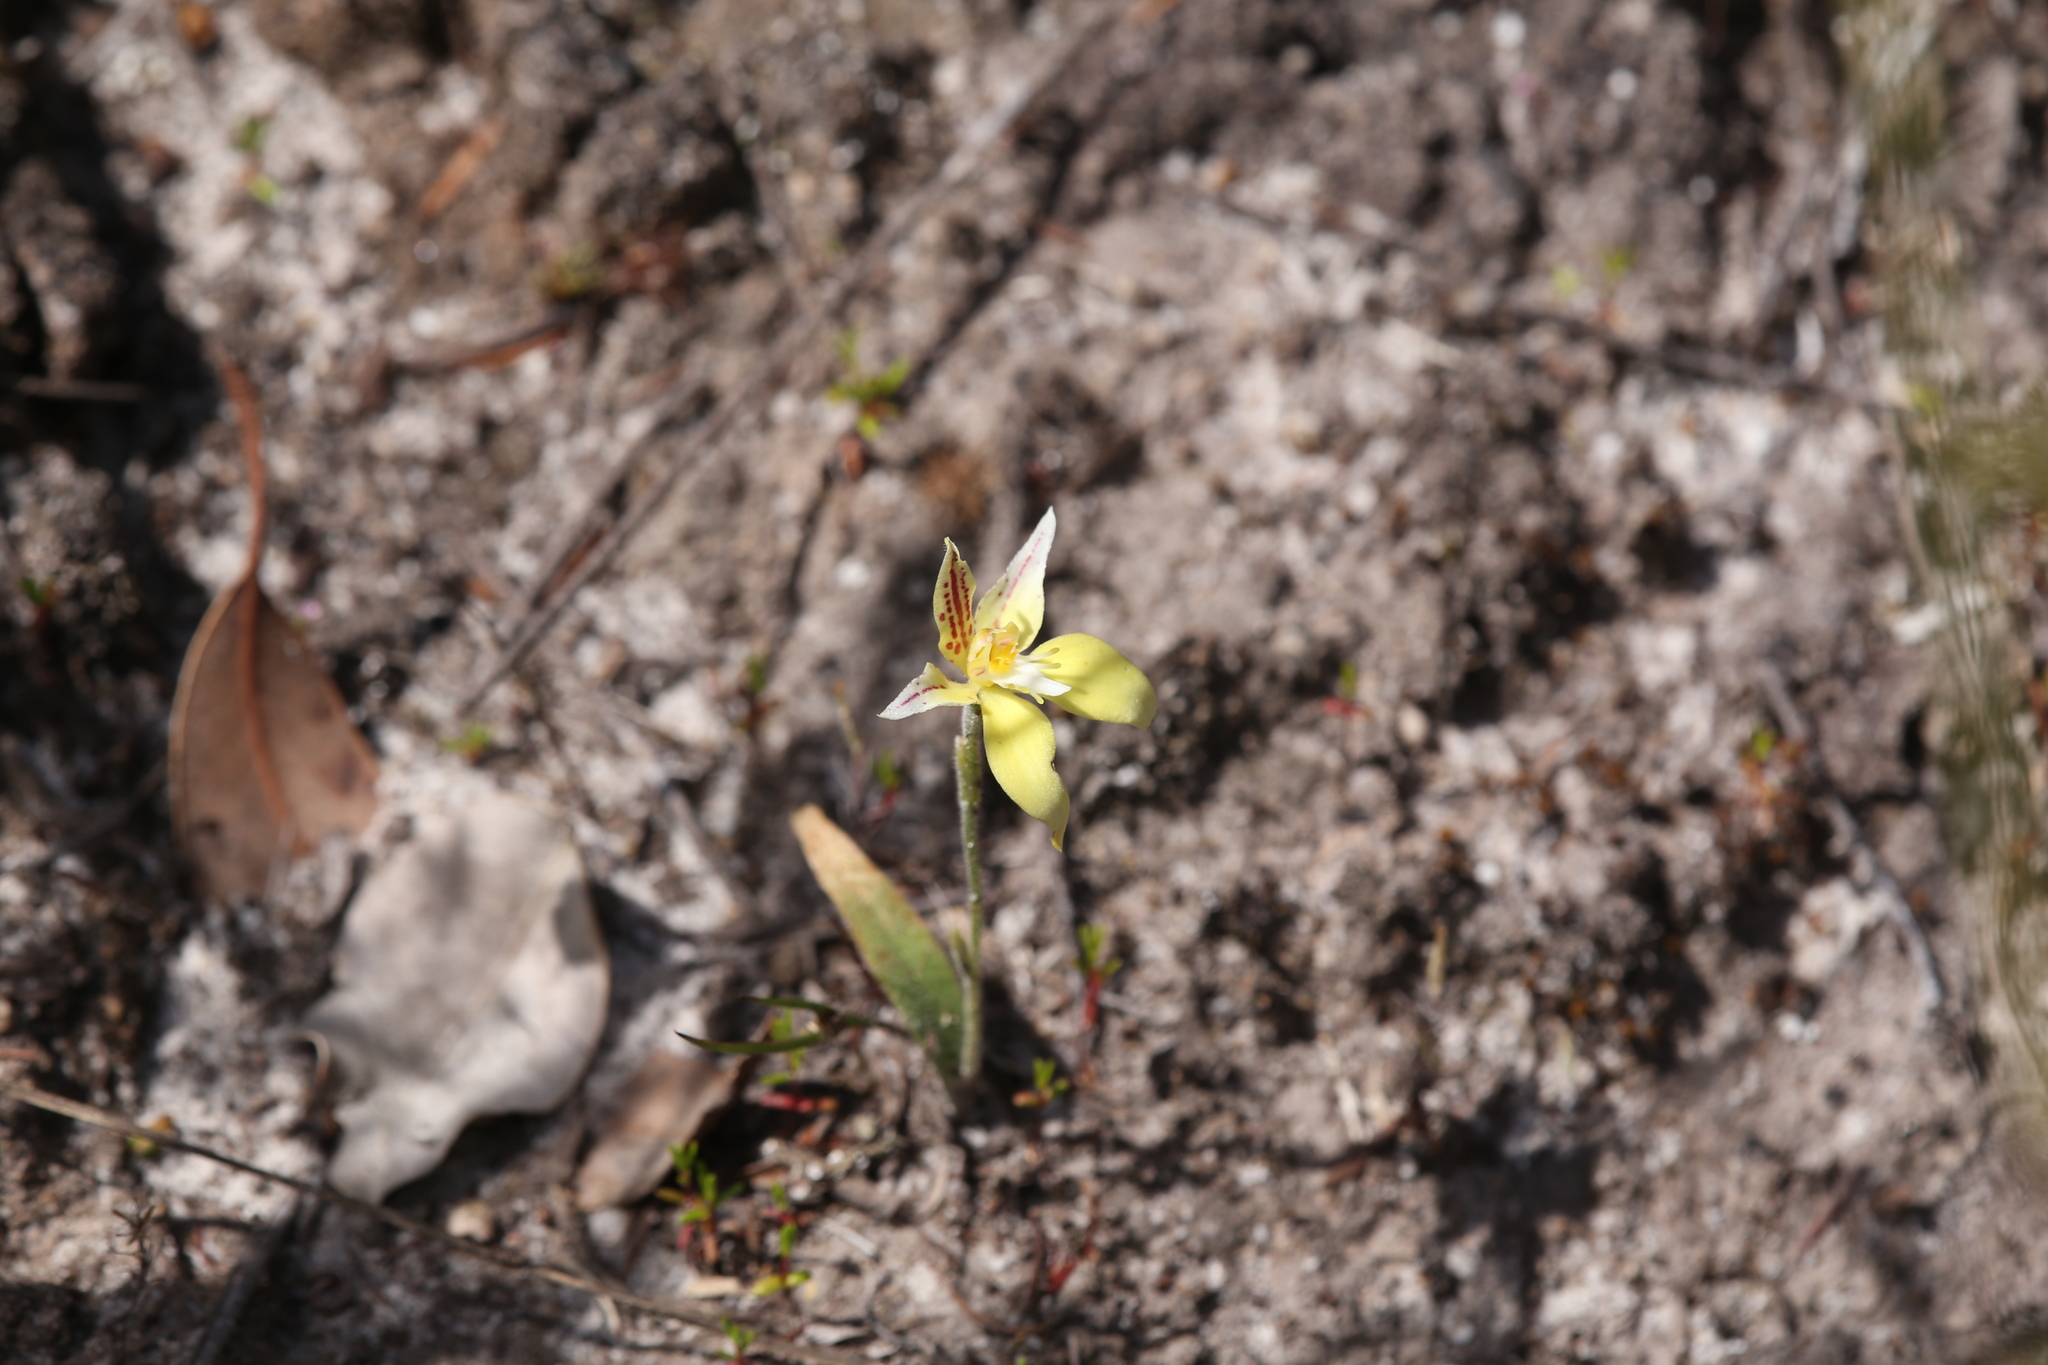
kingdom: Plantae
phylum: Tracheophyta
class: Liliopsida
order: Asparagales
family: Orchidaceae
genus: Caladenia
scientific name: Caladenia flava
